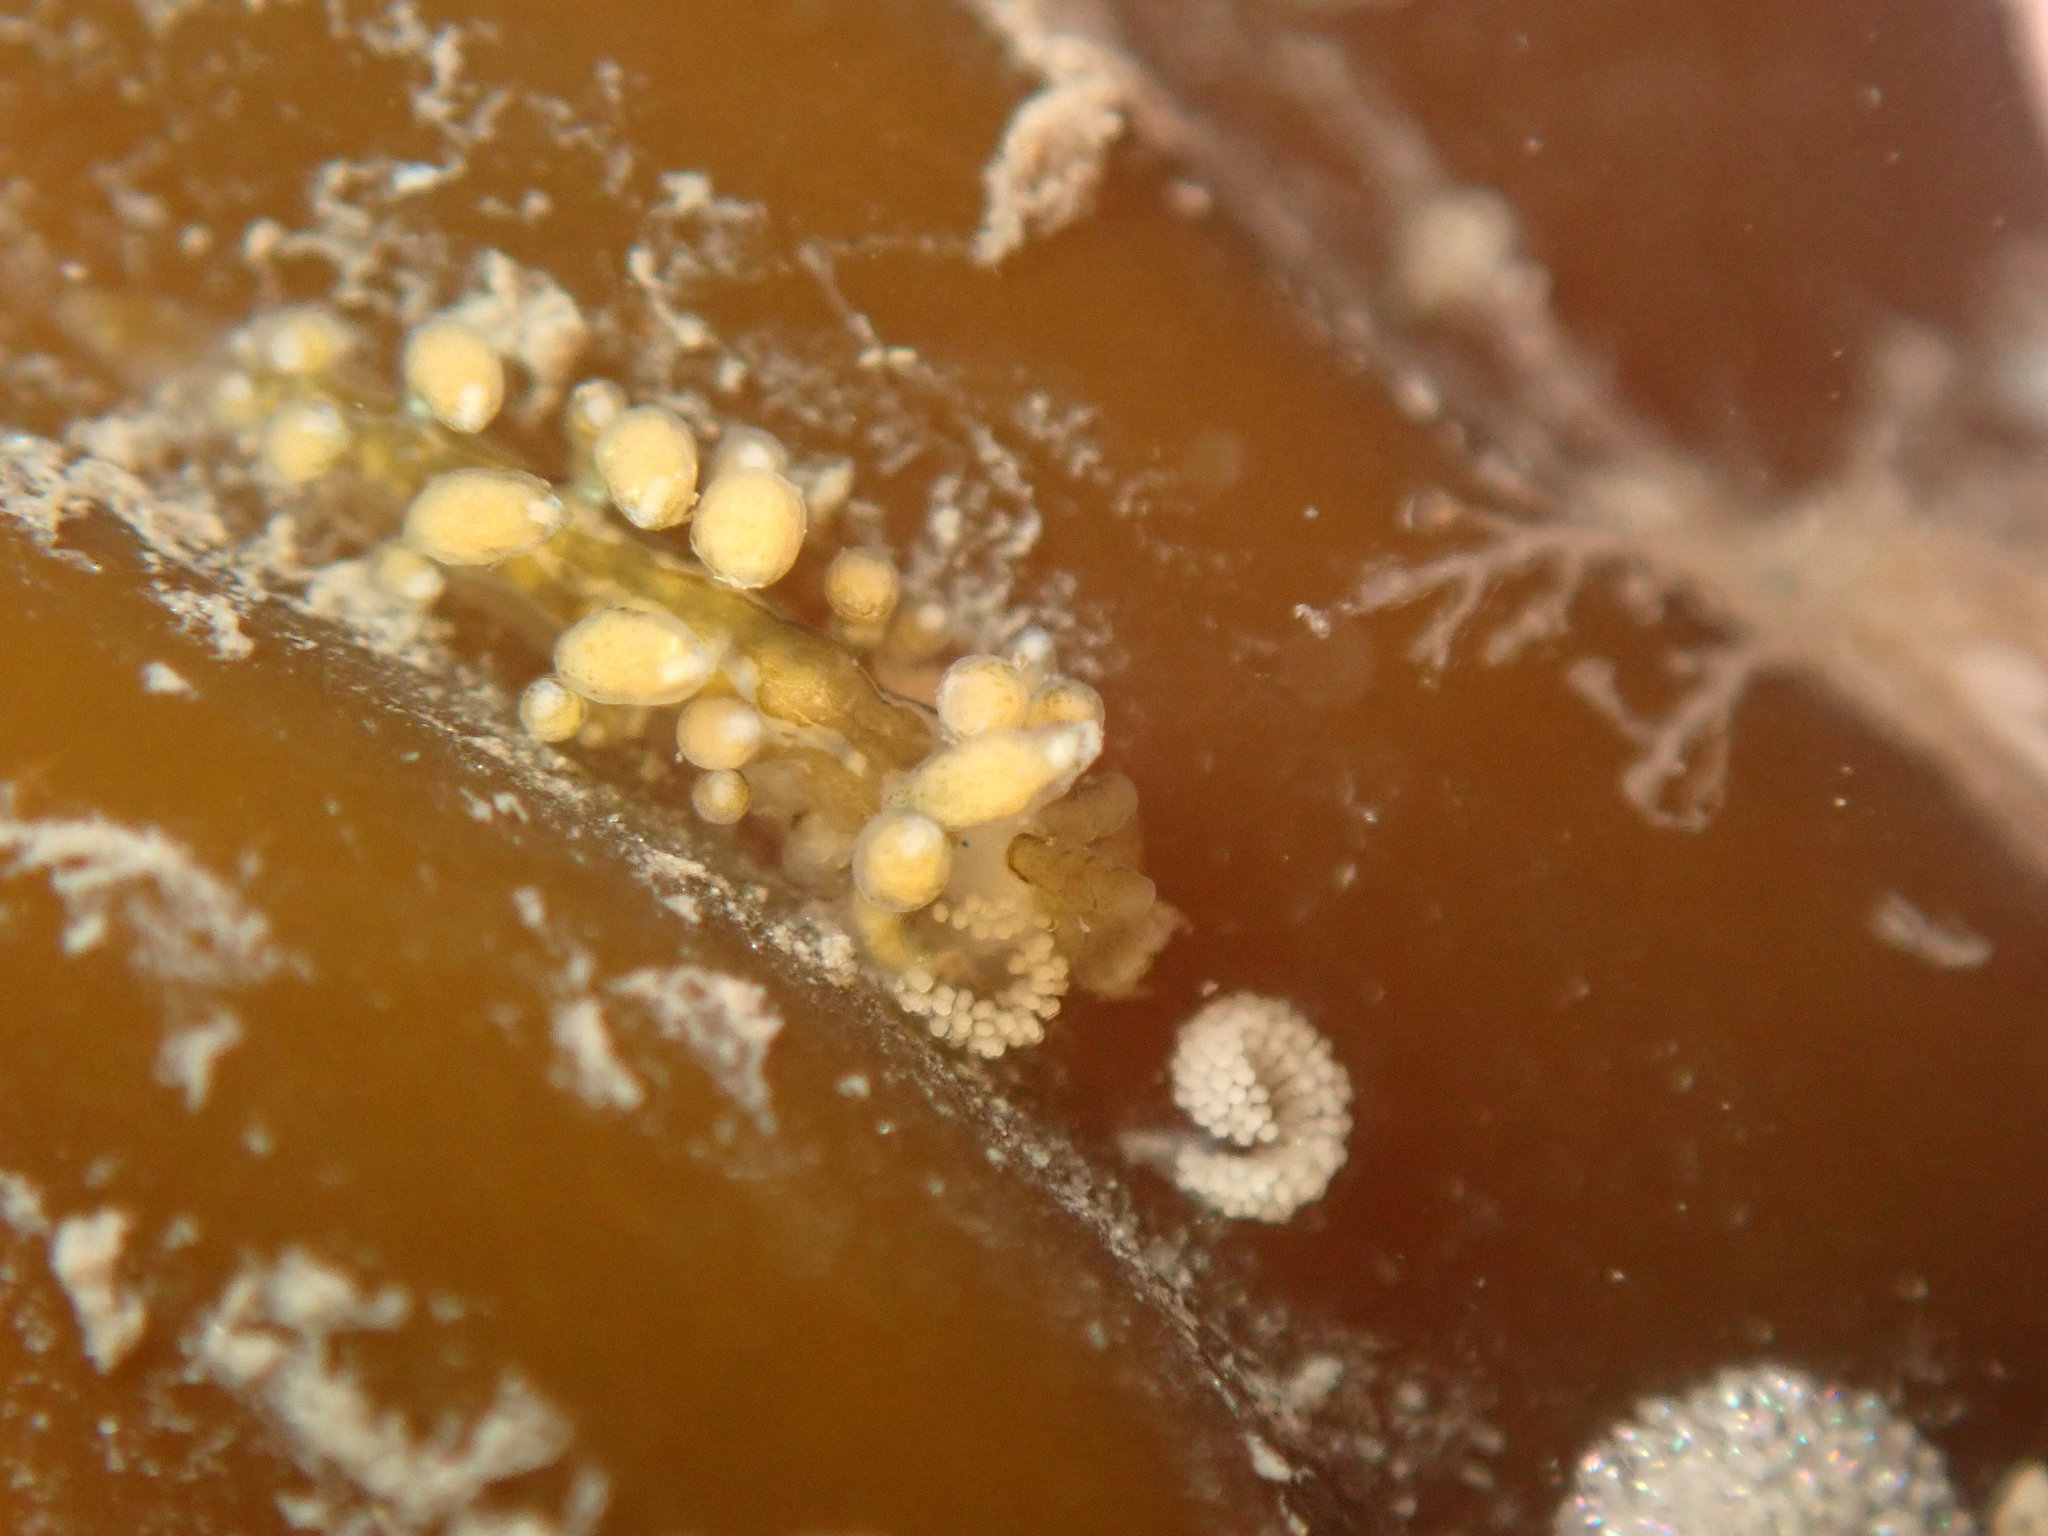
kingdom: Animalia
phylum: Mollusca
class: Gastropoda
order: Nudibranchia
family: Eubranchidae
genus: Eubranchus
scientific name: Eubranchus rustyus
